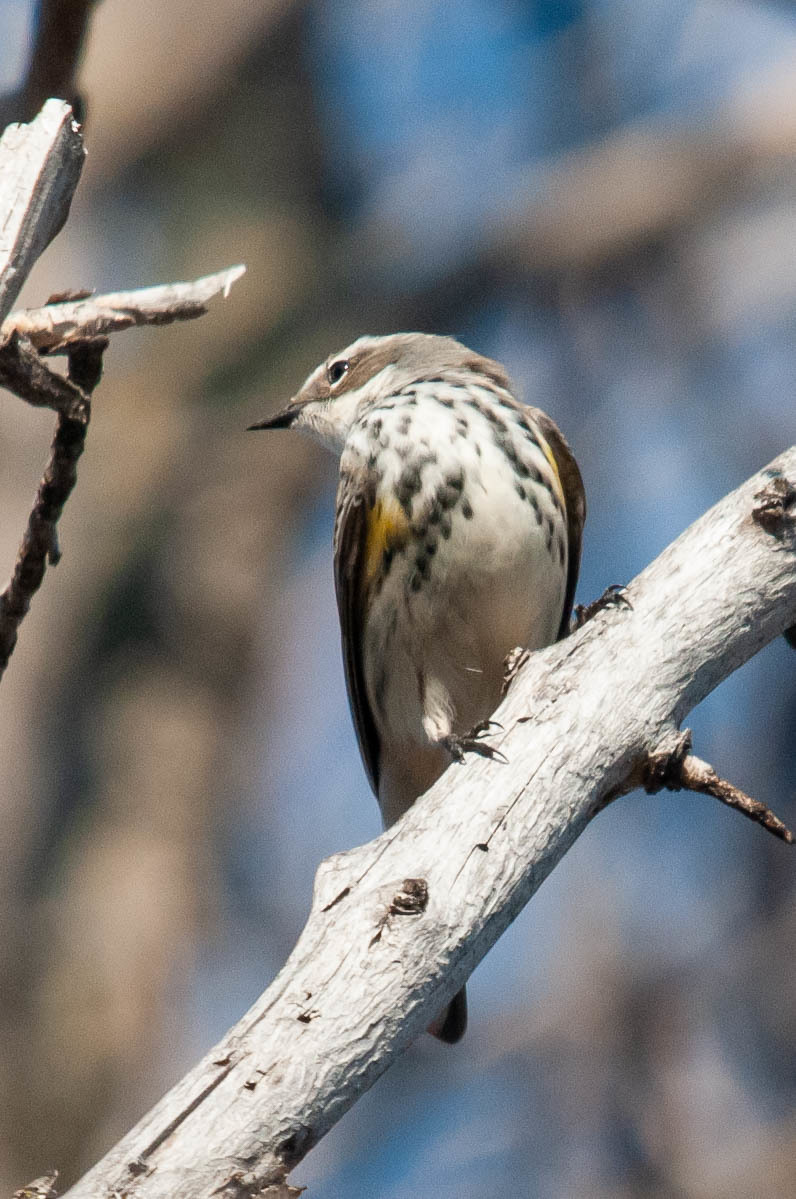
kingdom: Animalia
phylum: Chordata
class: Aves
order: Passeriformes
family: Parulidae
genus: Setophaga
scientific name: Setophaga coronata
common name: Myrtle warbler
